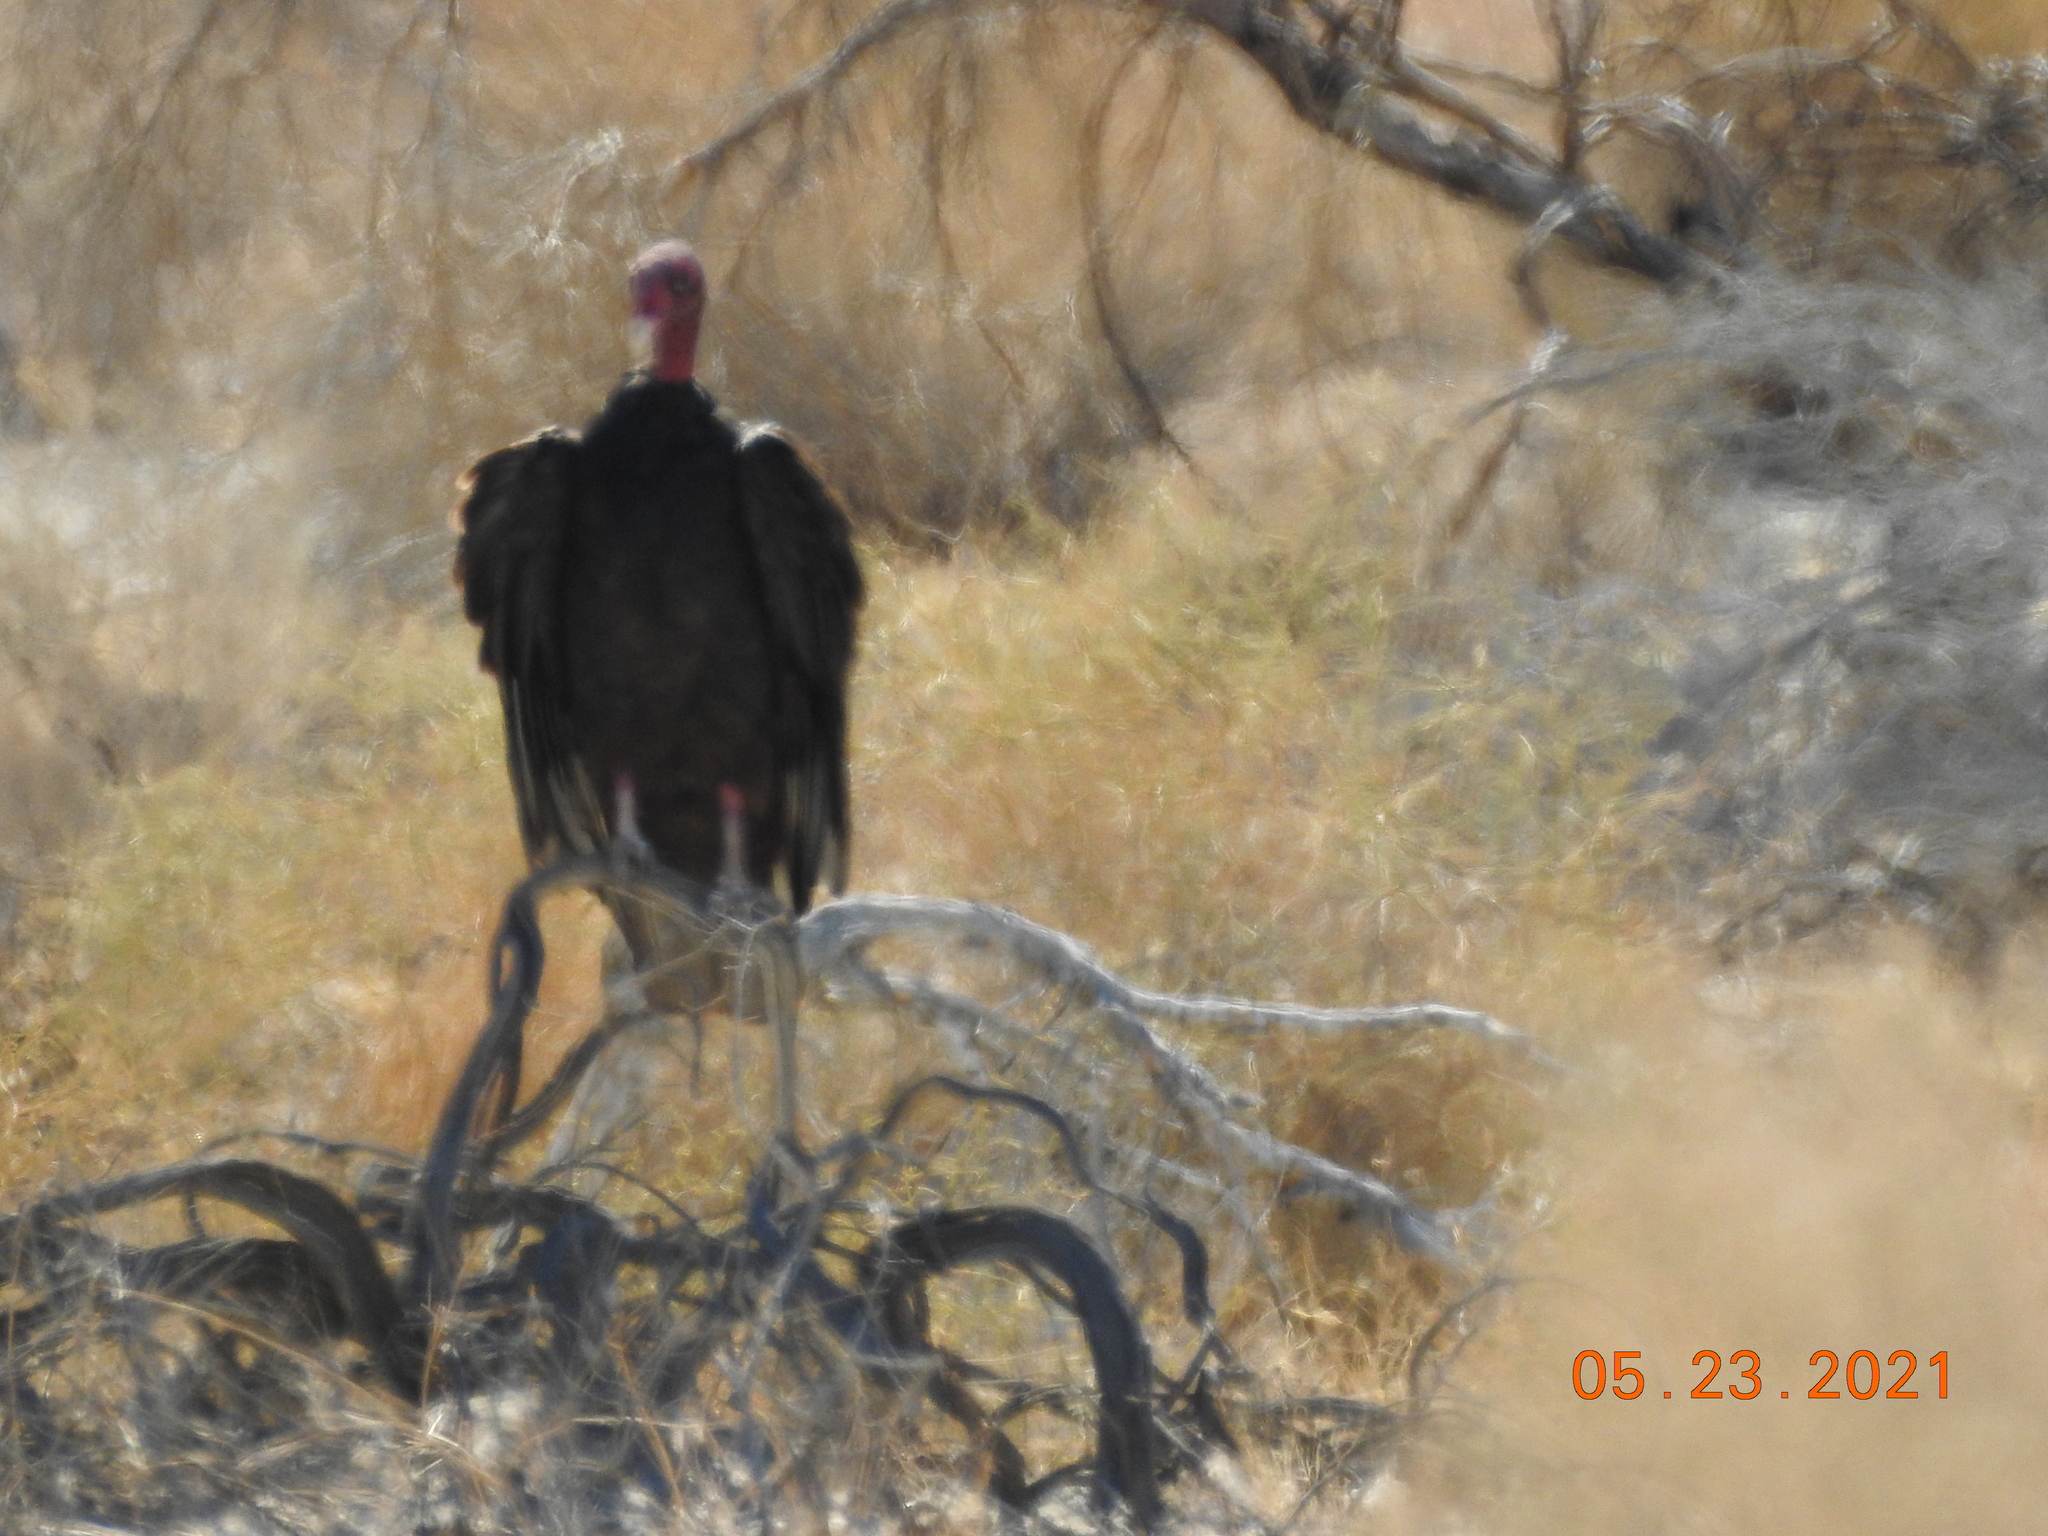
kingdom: Animalia
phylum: Chordata
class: Aves
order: Accipitriformes
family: Cathartidae
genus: Cathartes
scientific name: Cathartes aura
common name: Turkey vulture
